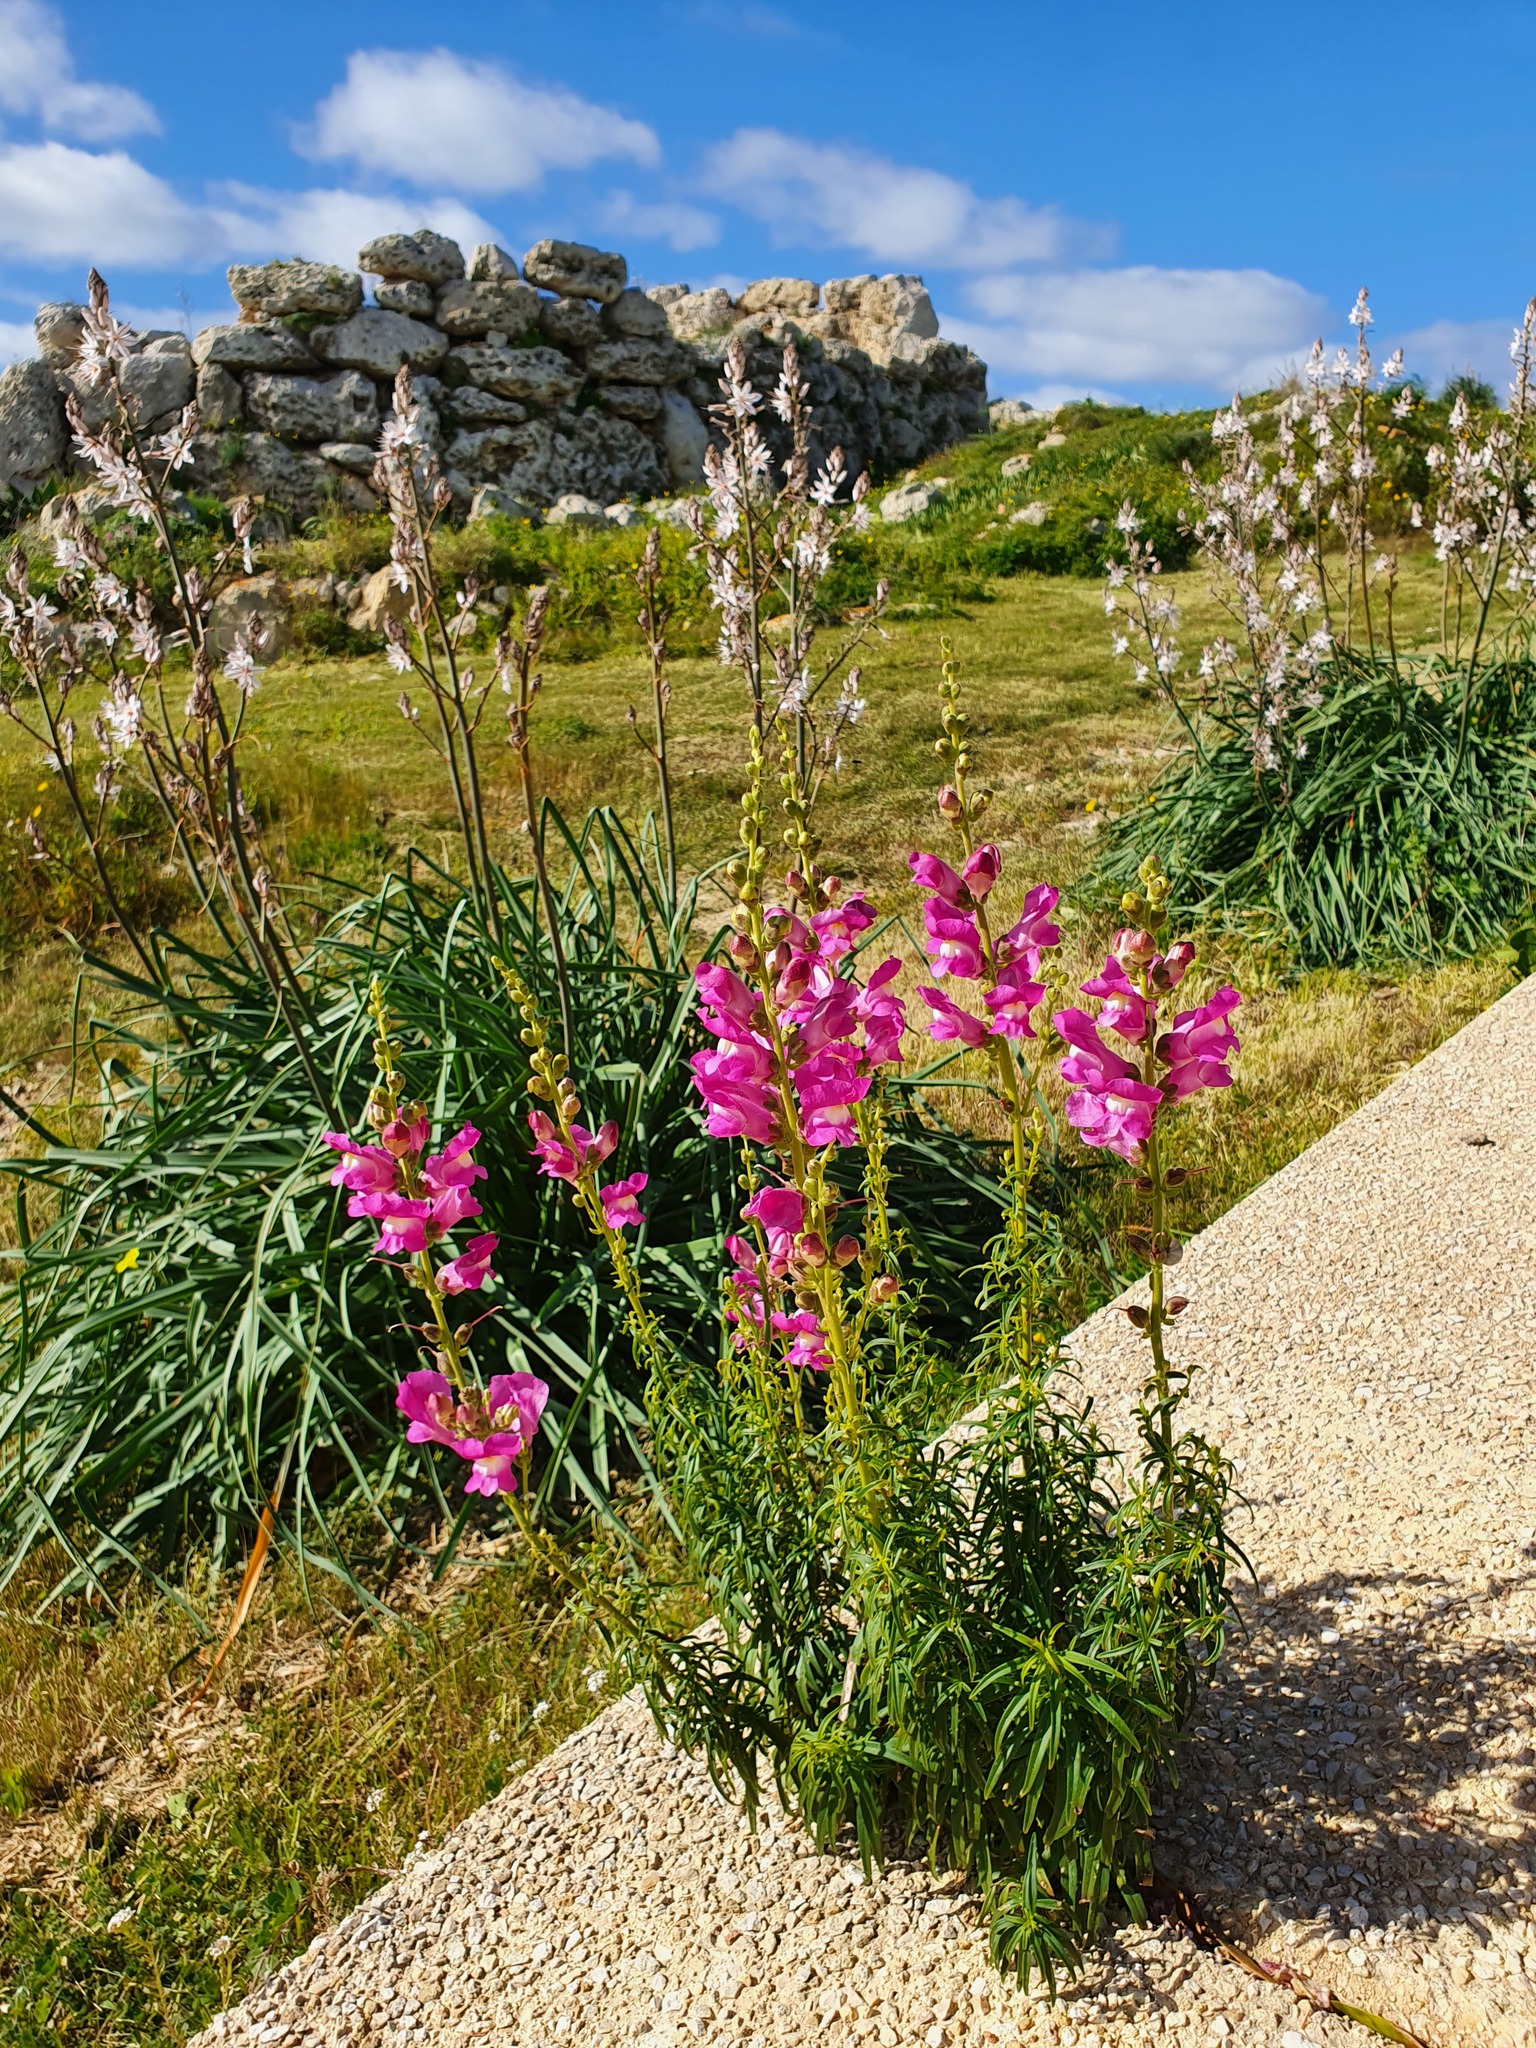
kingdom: Plantae
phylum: Tracheophyta
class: Magnoliopsida
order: Lamiales
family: Plantaginaceae
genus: Antirrhinum
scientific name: Antirrhinum tortuosum
